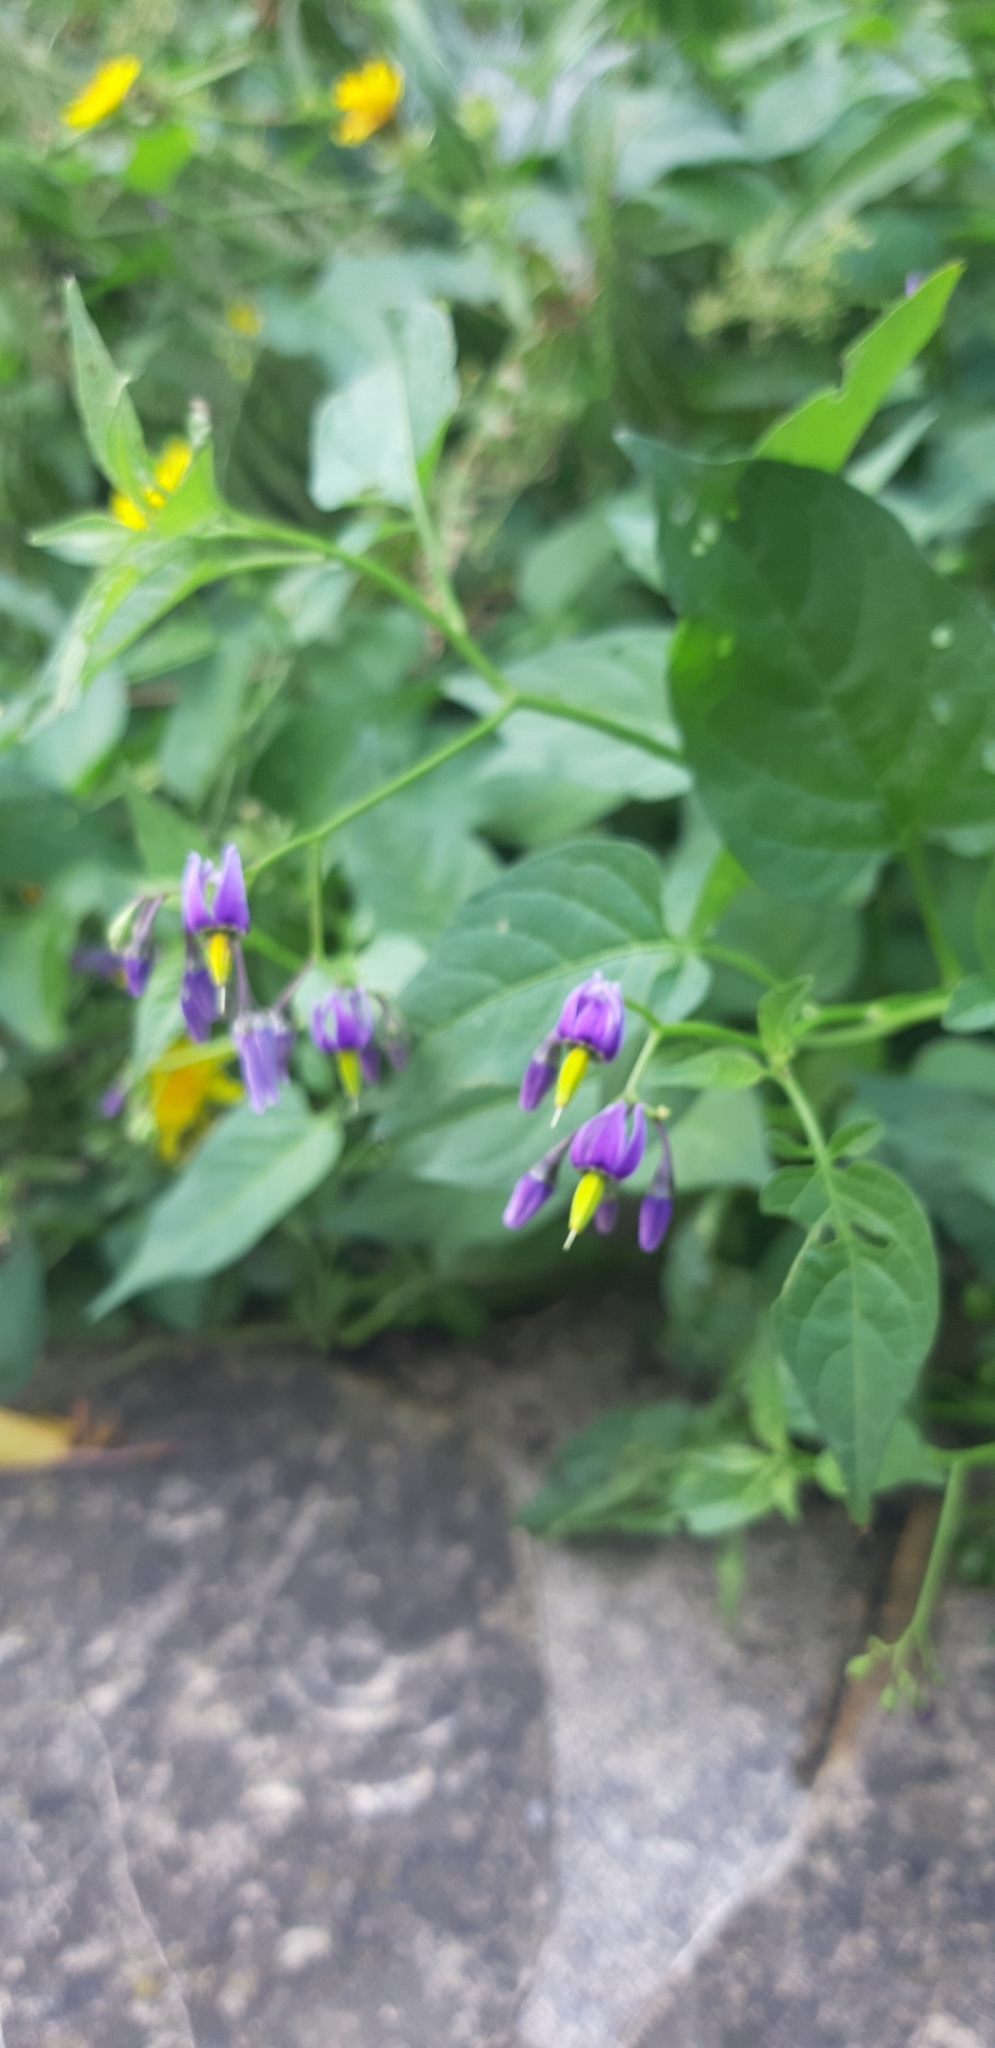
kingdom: Plantae
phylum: Tracheophyta
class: Magnoliopsida
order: Solanales
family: Solanaceae
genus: Solanum
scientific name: Solanum dulcamara
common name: Climbing nightshade
